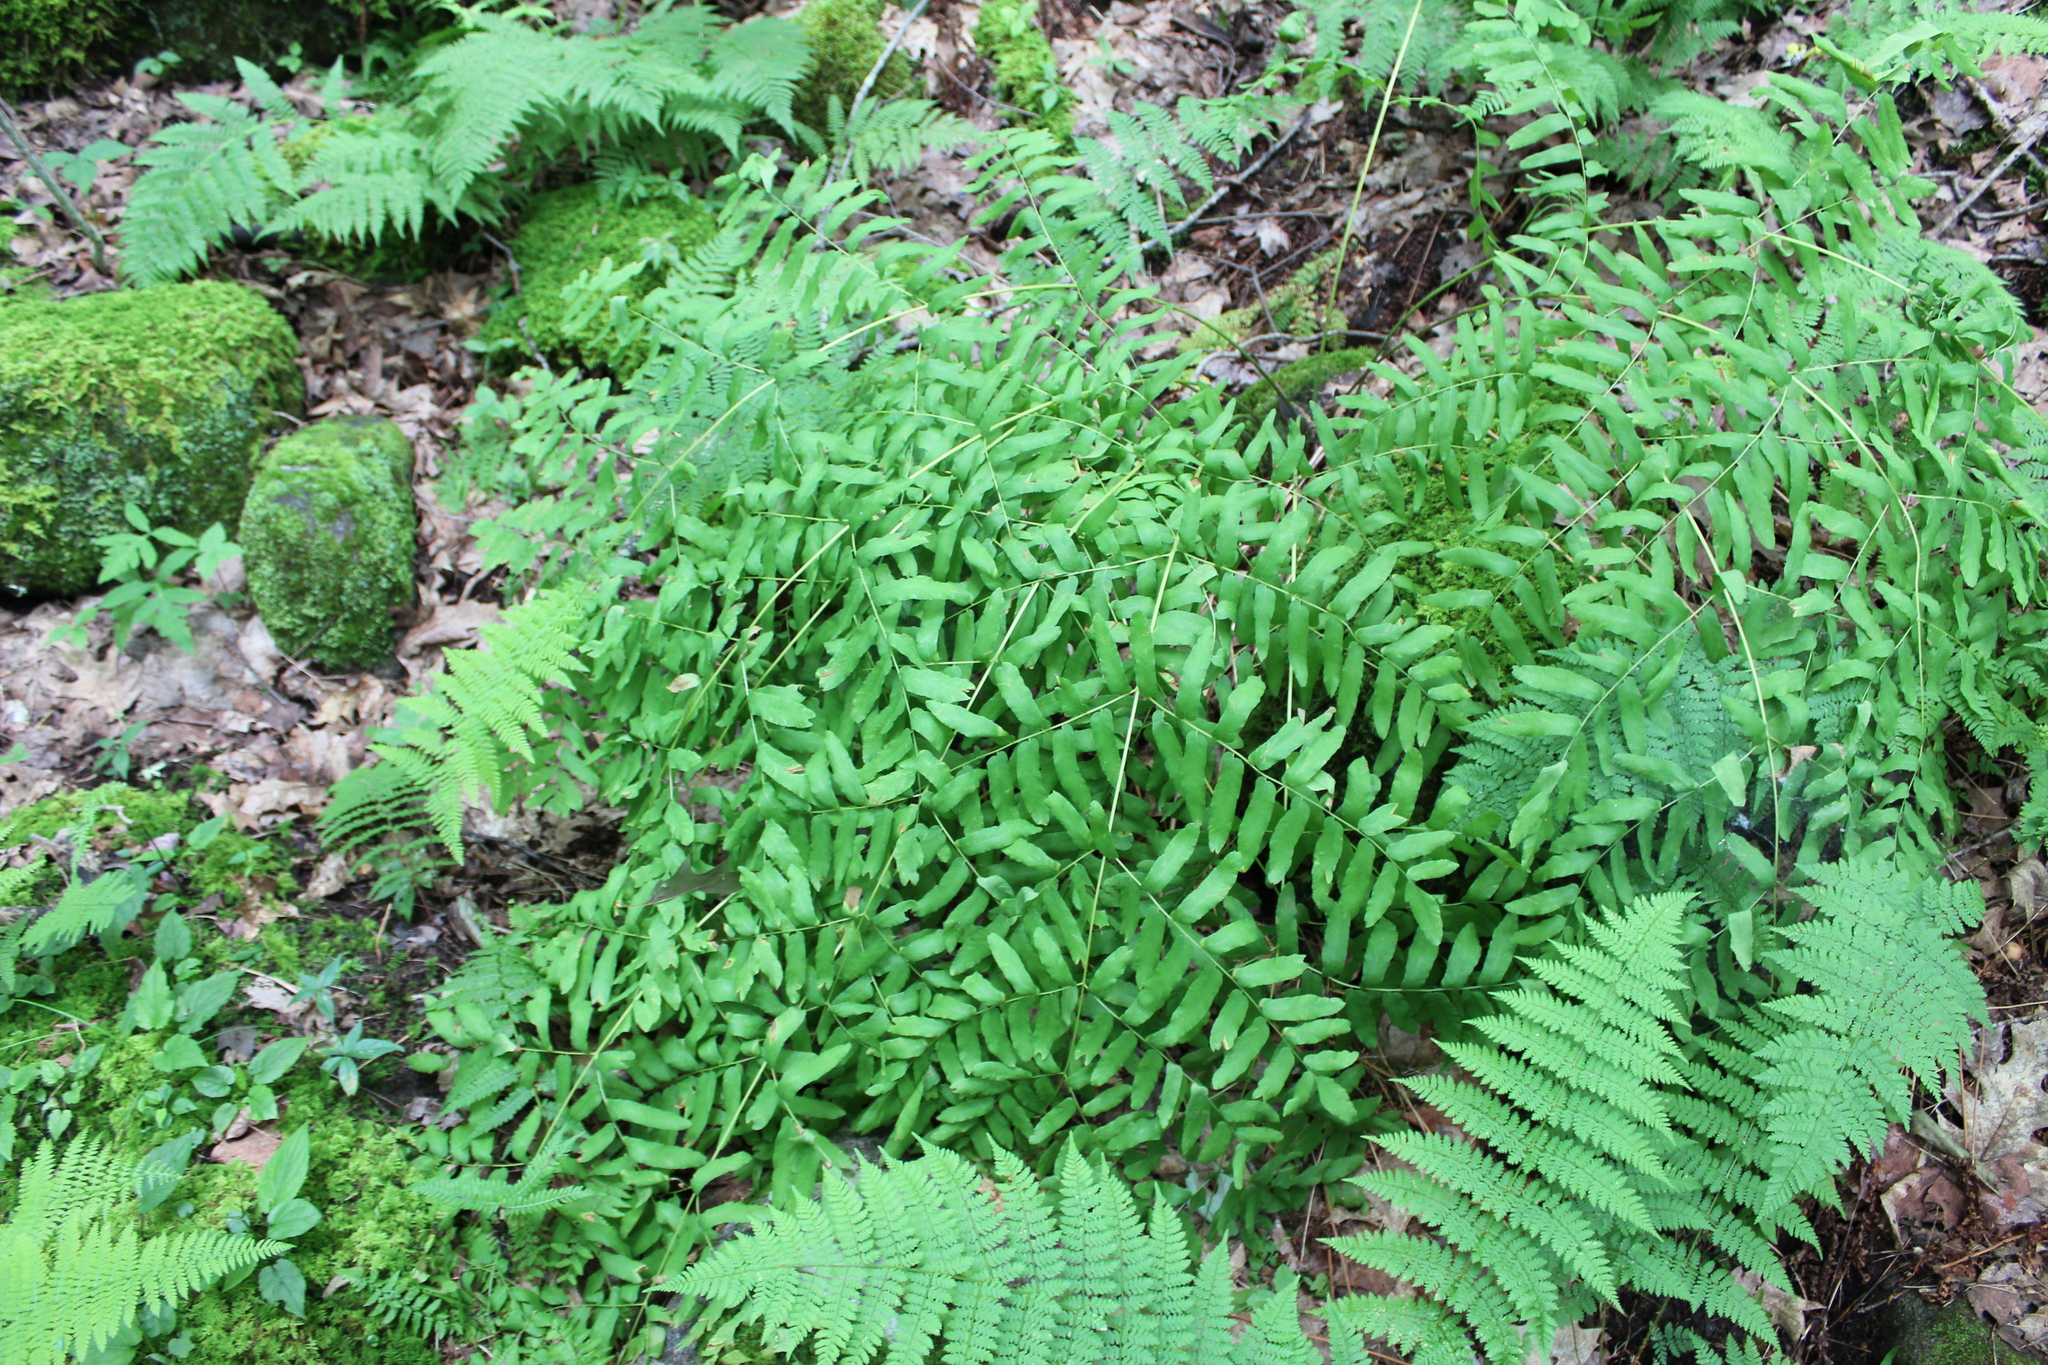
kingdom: Plantae
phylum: Tracheophyta
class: Polypodiopsida
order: Osmundales
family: Osmundaceae
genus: Osmunda
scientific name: Osmunda spectabilis
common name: American royal fern
